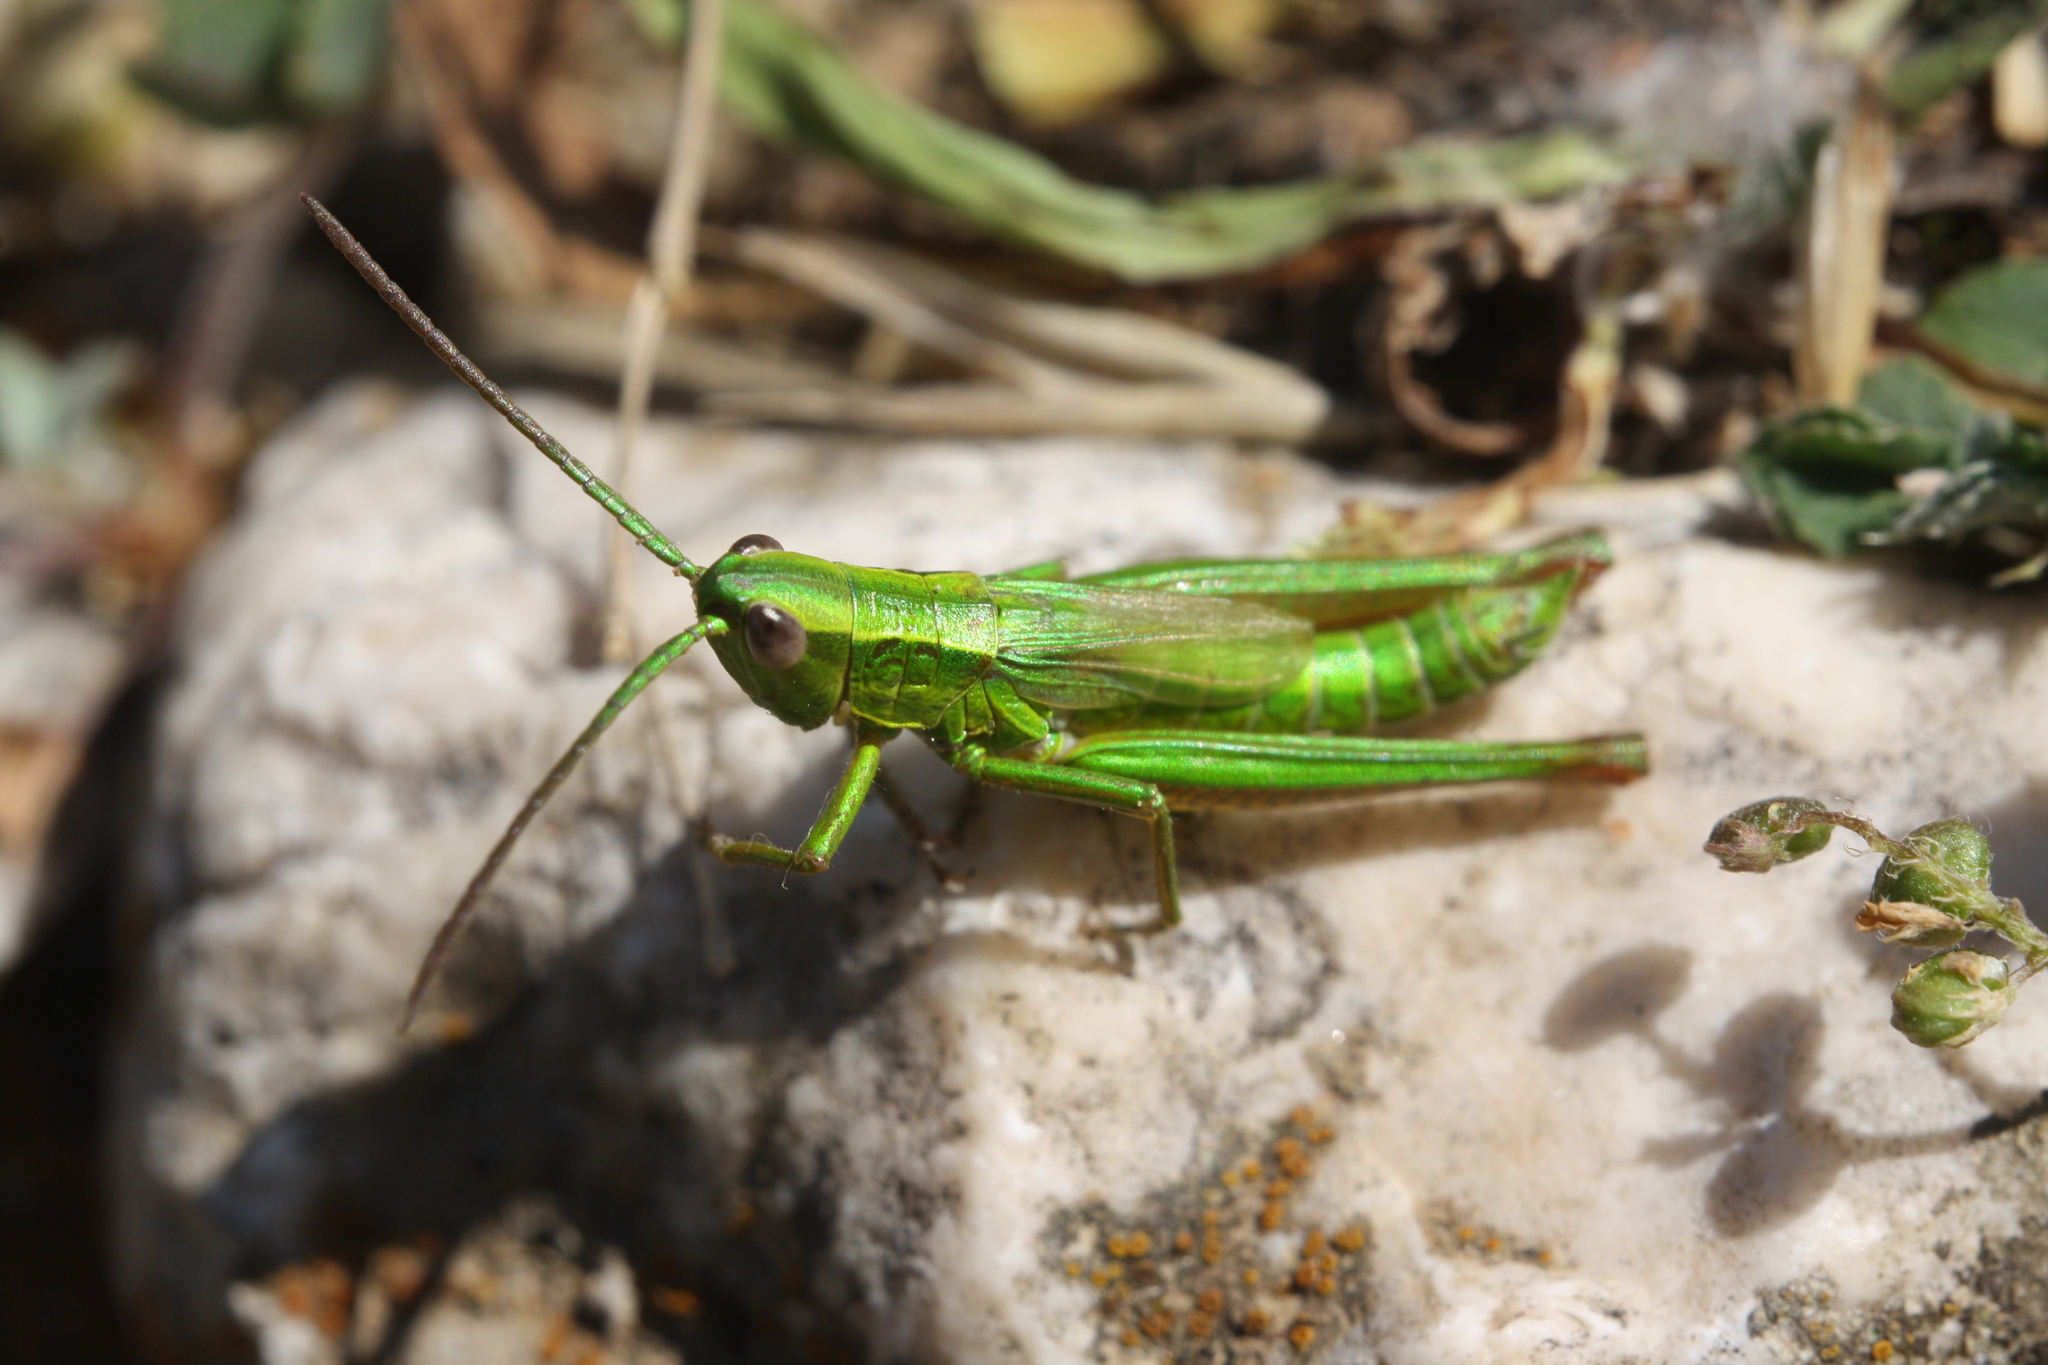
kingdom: Animalia
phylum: Arthropoda
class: Insecta
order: Orthoptera
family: Acrididae
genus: Euthystira
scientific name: Euthystira brachyptera
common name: Small gold grasshopper
